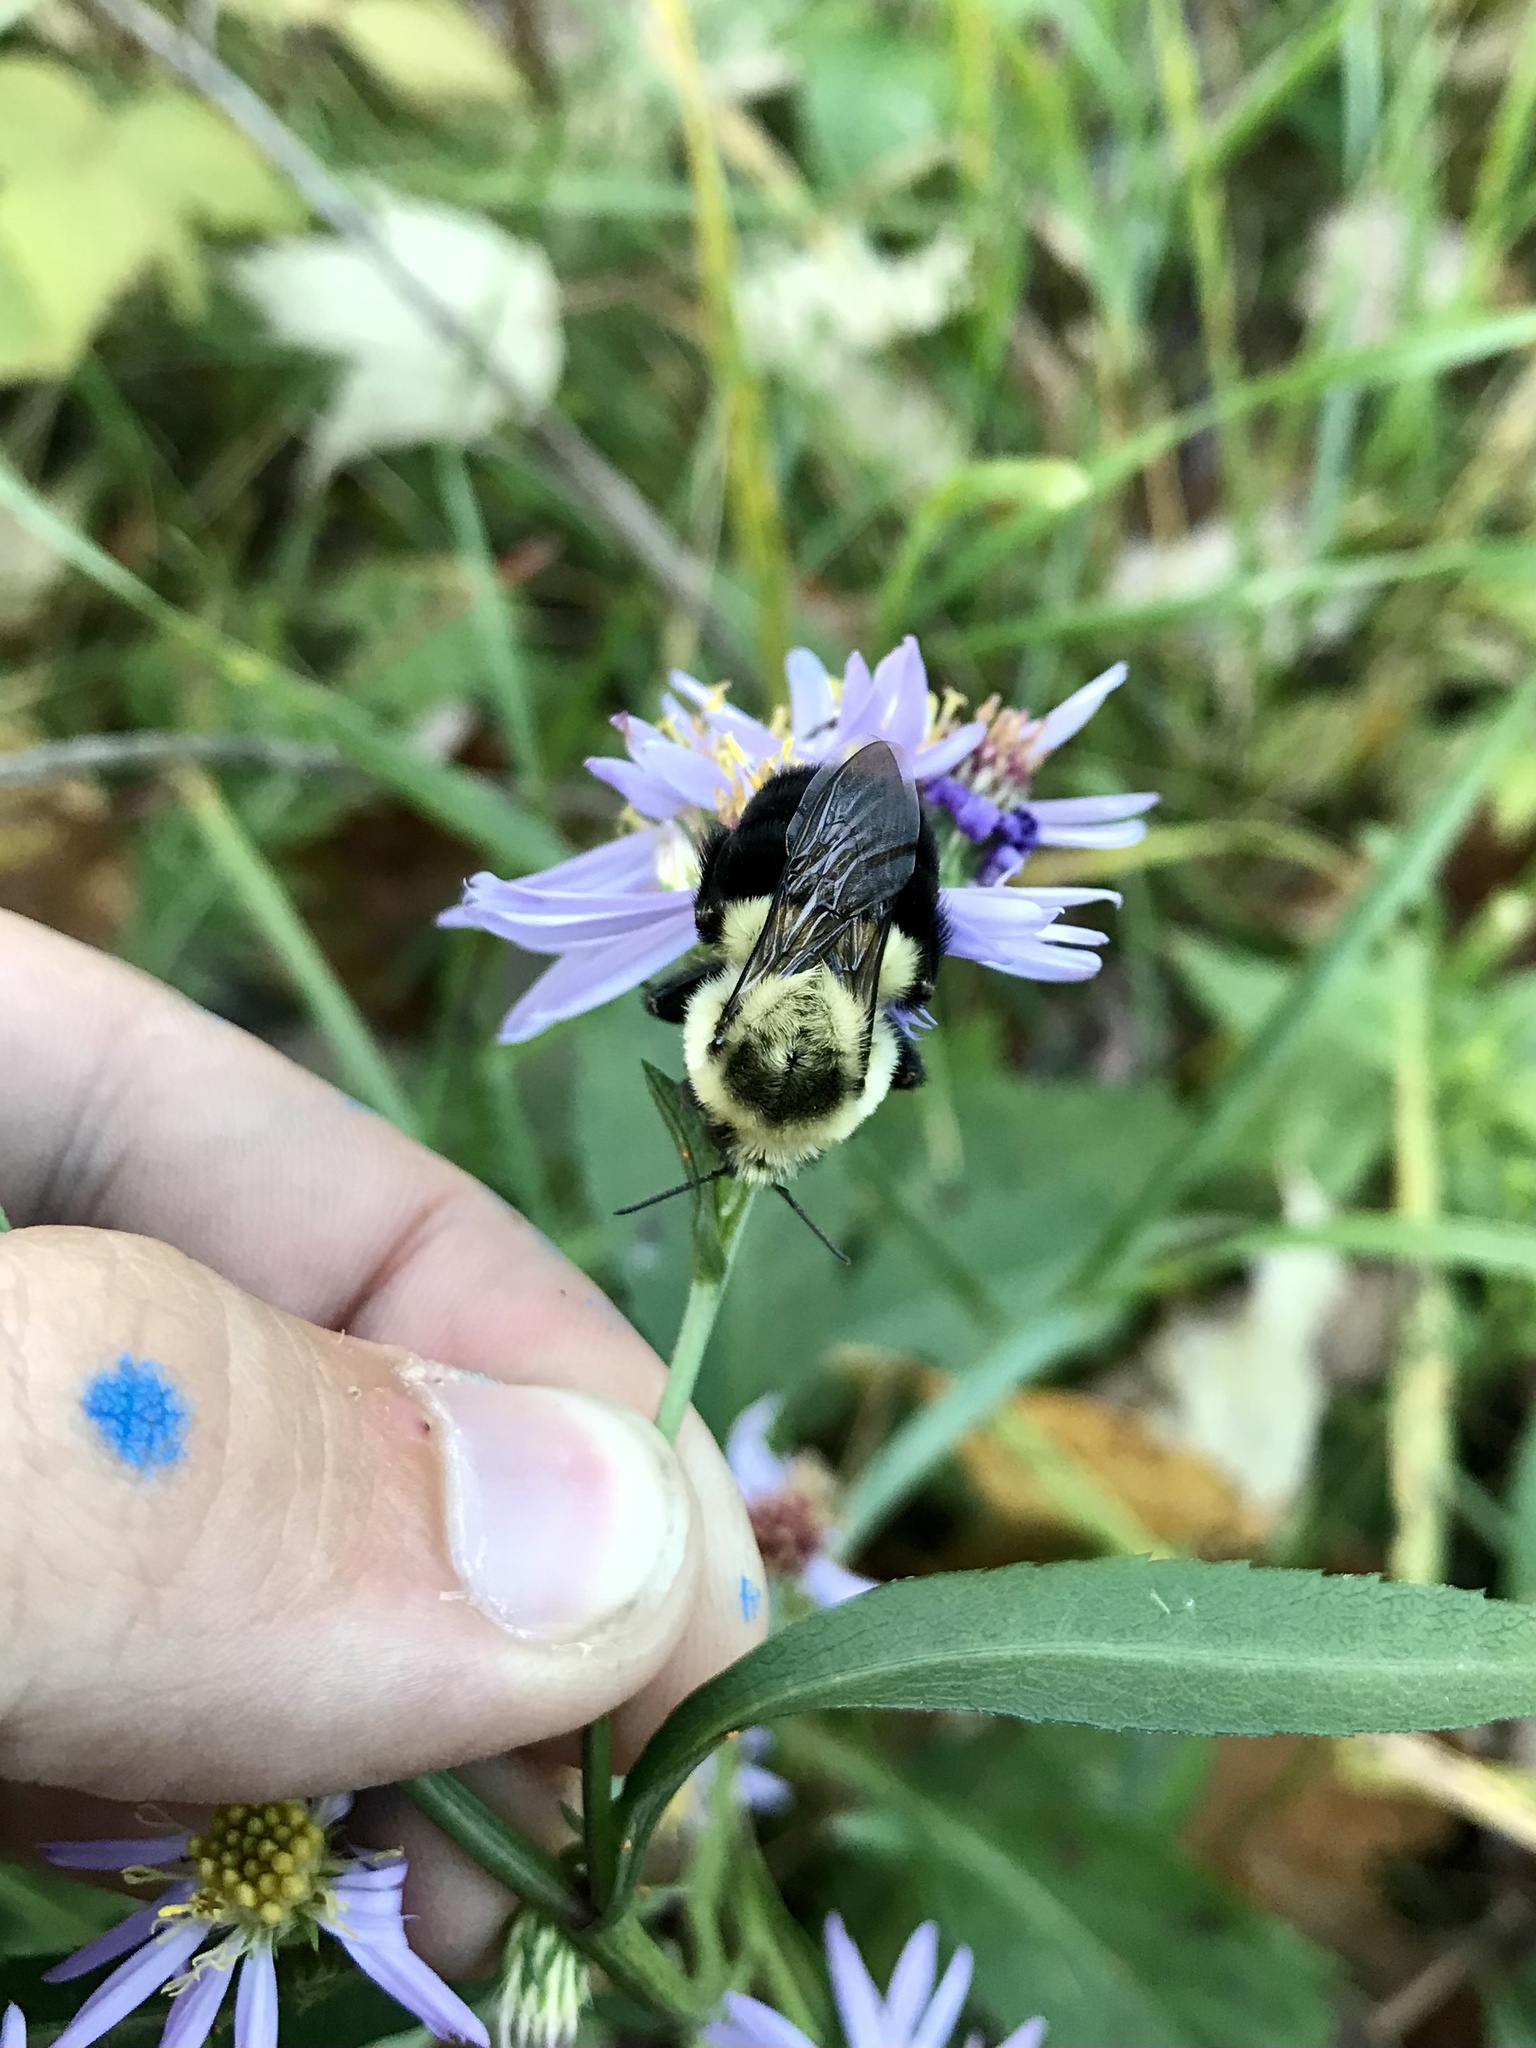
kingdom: Animalia
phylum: Arthropoda
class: Insecta
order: Hymenoptera
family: Apidae
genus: Bombus
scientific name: Bombus impatiens
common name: Common eastern bumble bee
